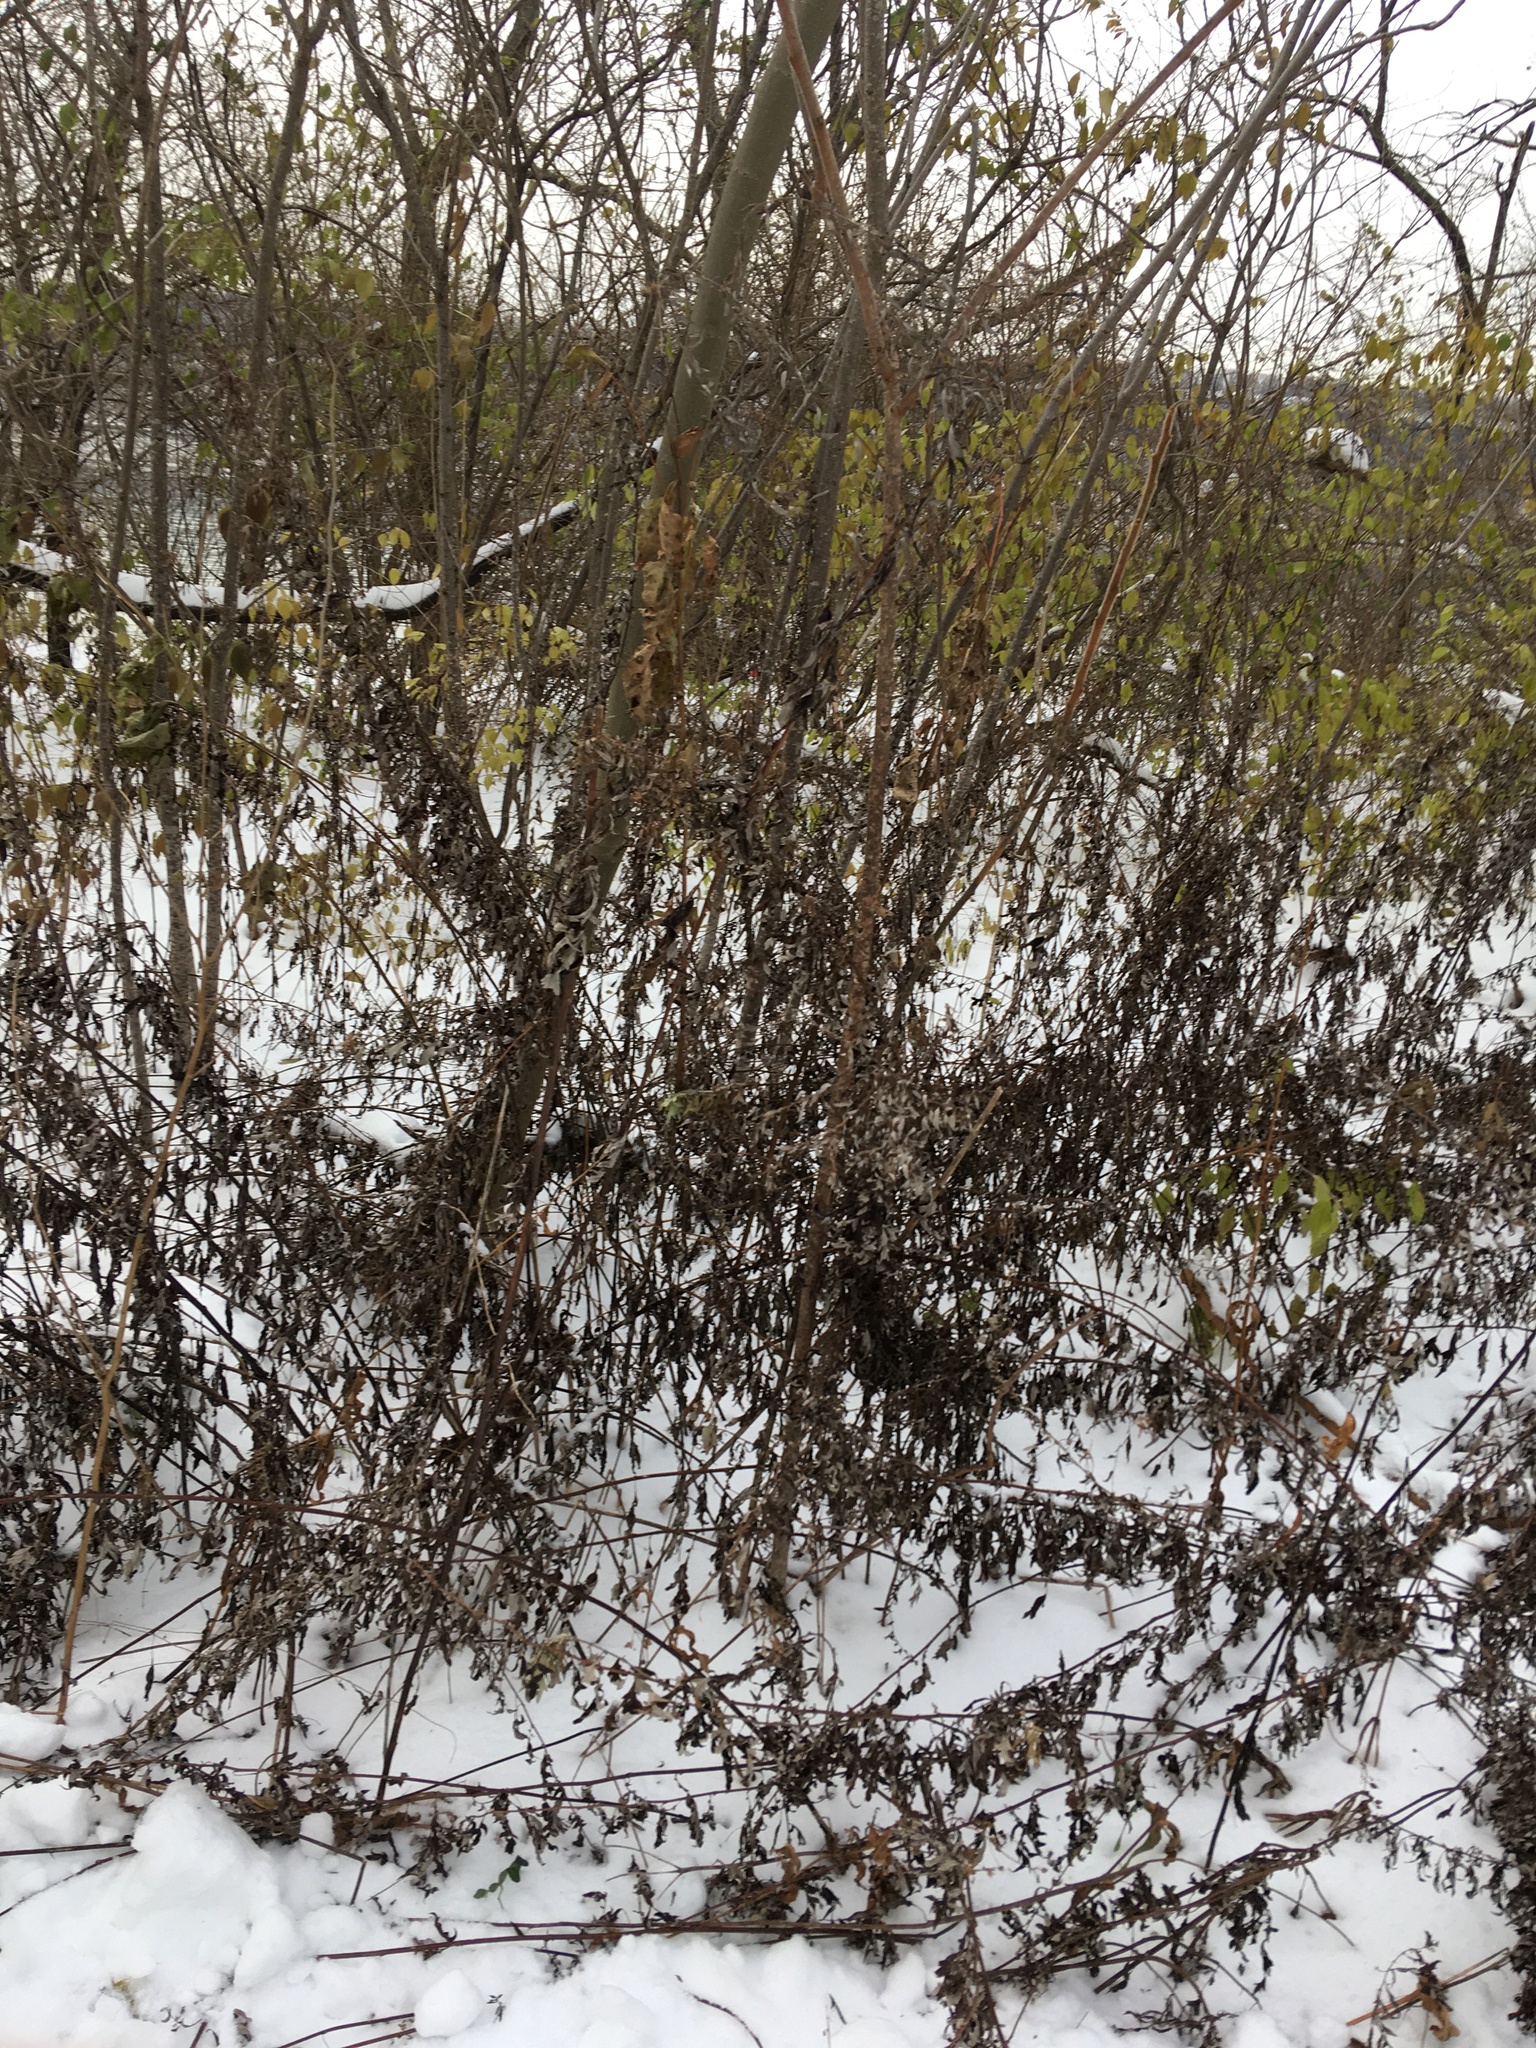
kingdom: Plantae
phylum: Tracheophyta
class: Magnoliopsida
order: Asterales
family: Asteraceae
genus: Artemisia
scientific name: Artemisia vulgaris
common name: Mugwort
